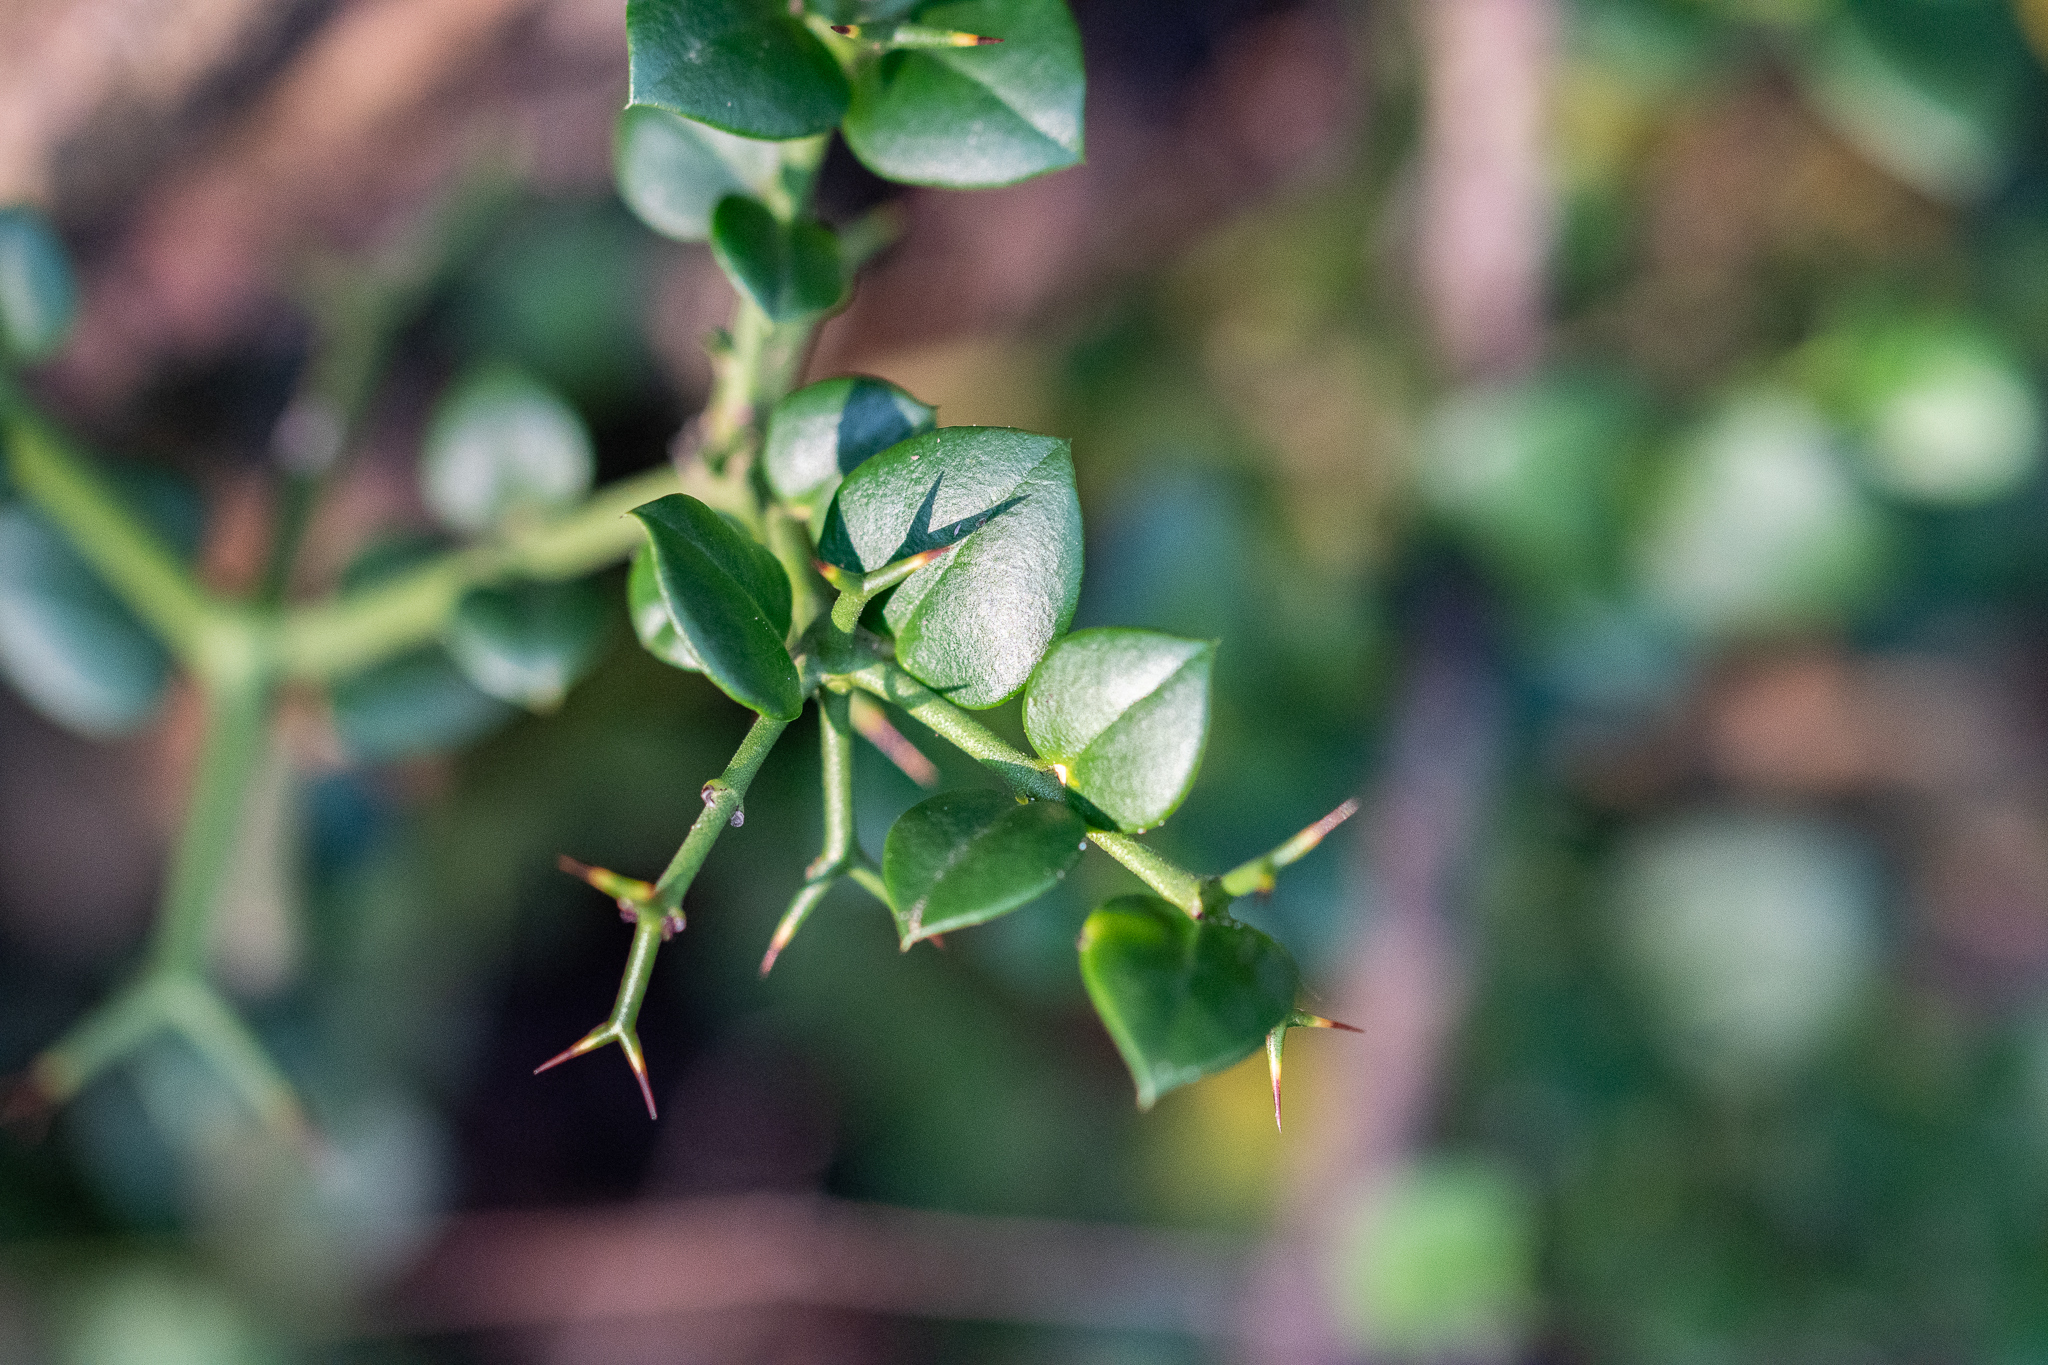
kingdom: Plantae
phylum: Tracheophyta
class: Magnoliopsida
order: Gentianales
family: Apocynaceae
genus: Carissa
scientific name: Carissa bispinosa
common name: Forest num-num
